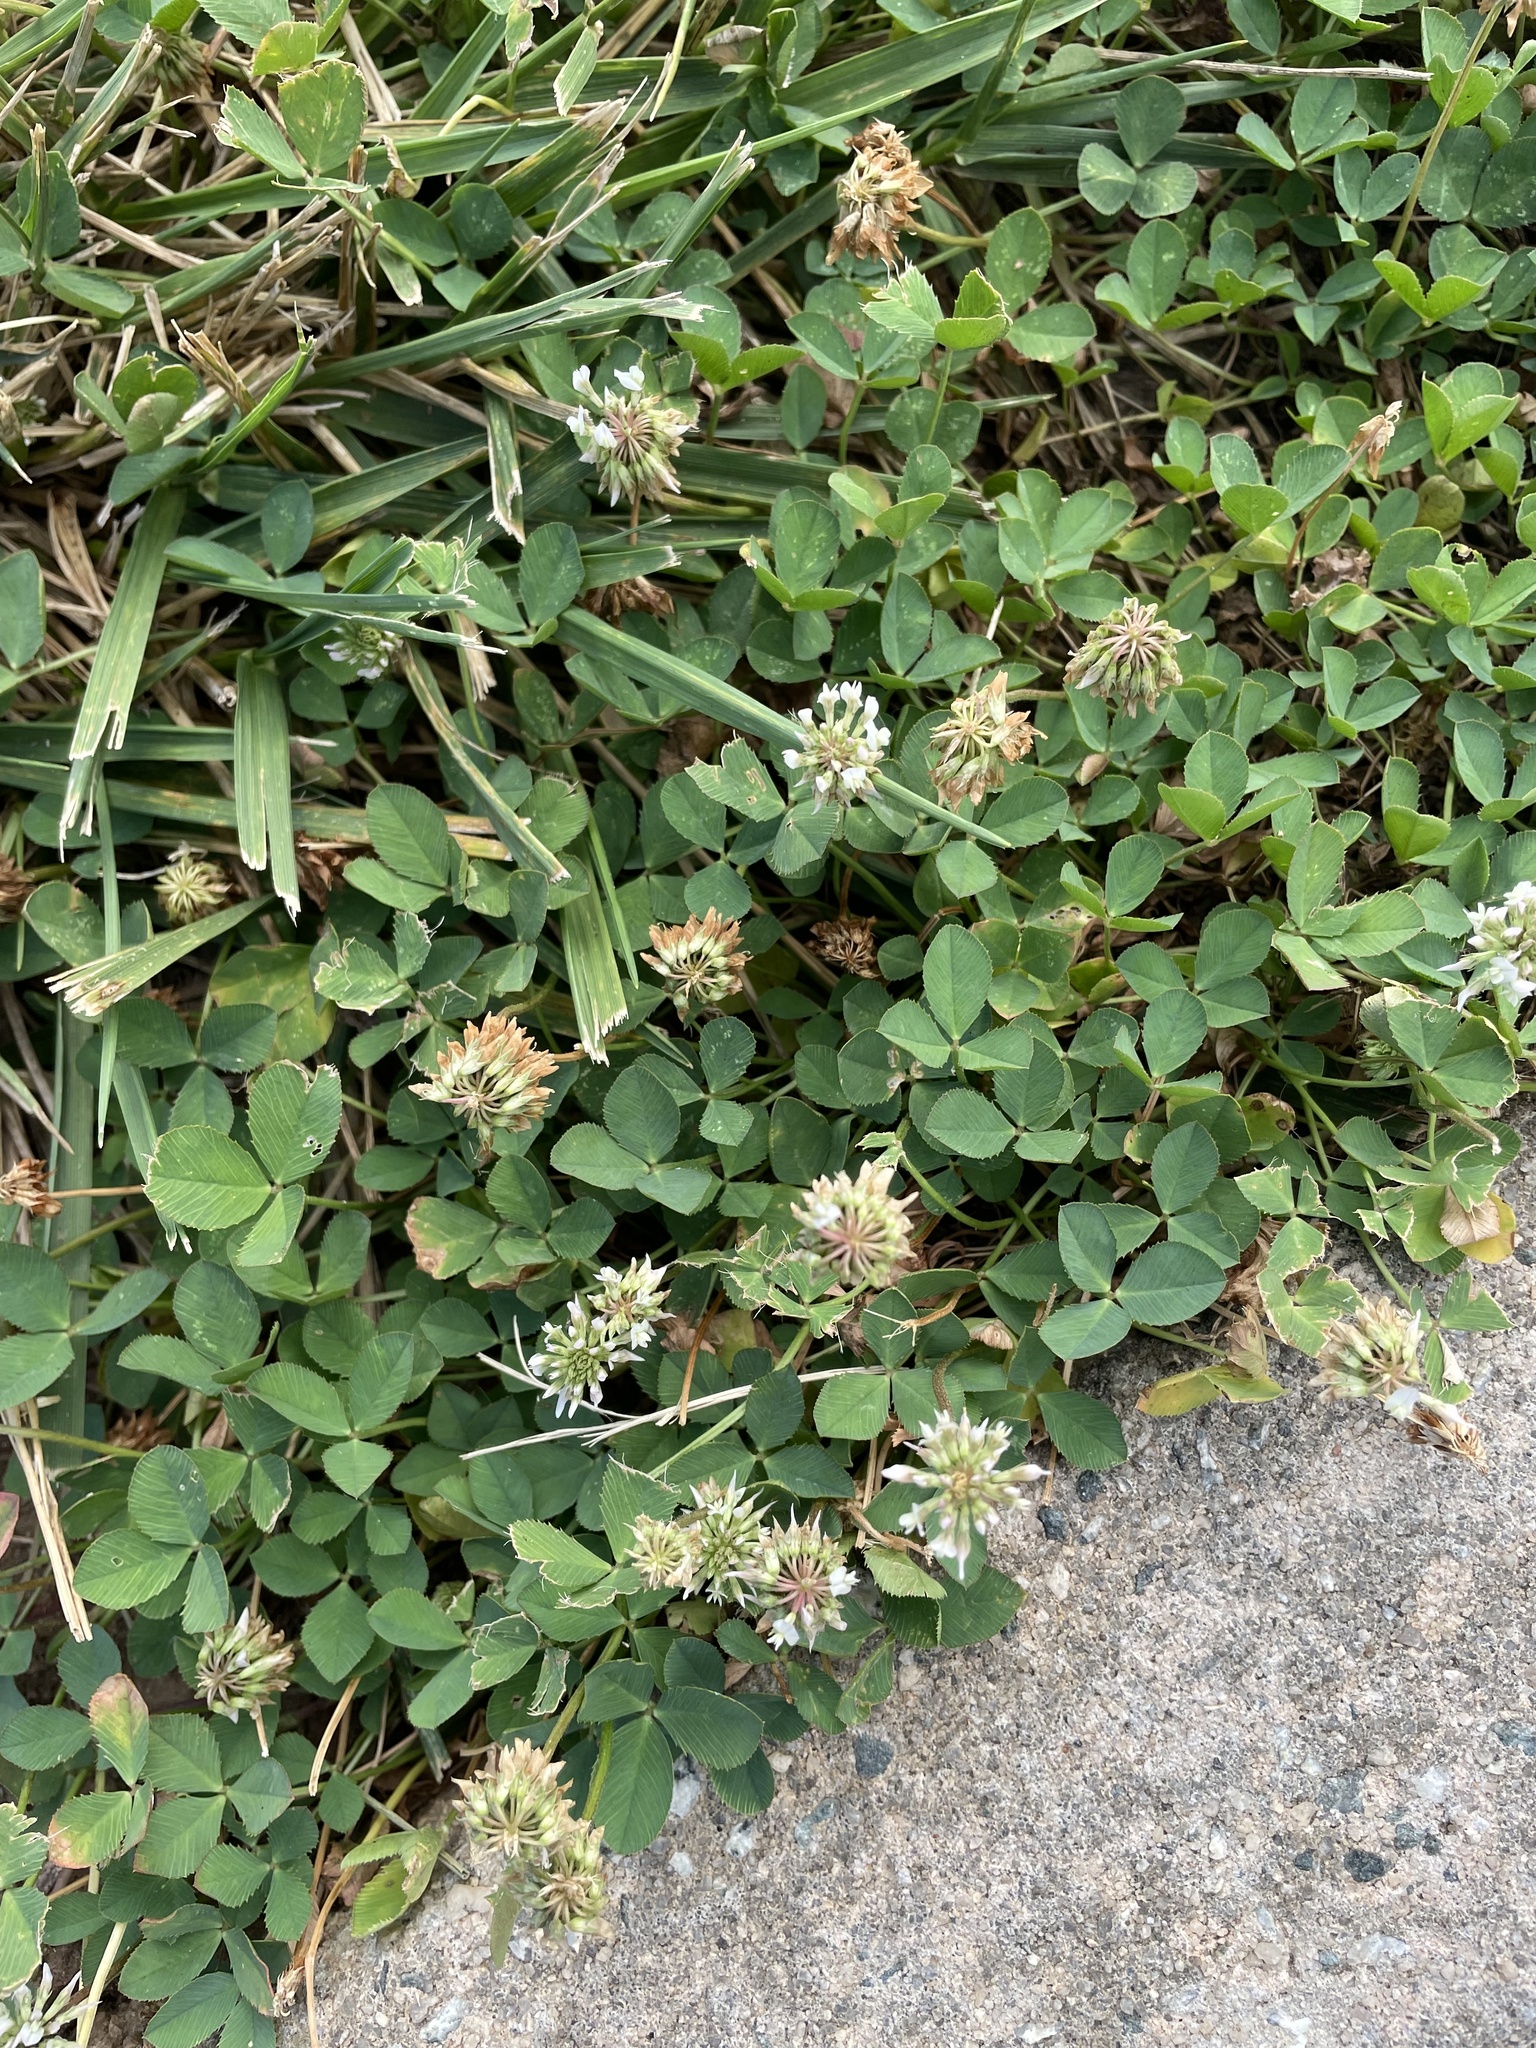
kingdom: Plantae
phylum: Tracheophyta
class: Magnoliopsida
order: Fabales
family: Fabaceae
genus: Trifolium
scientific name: Trifolium repens
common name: White clover
